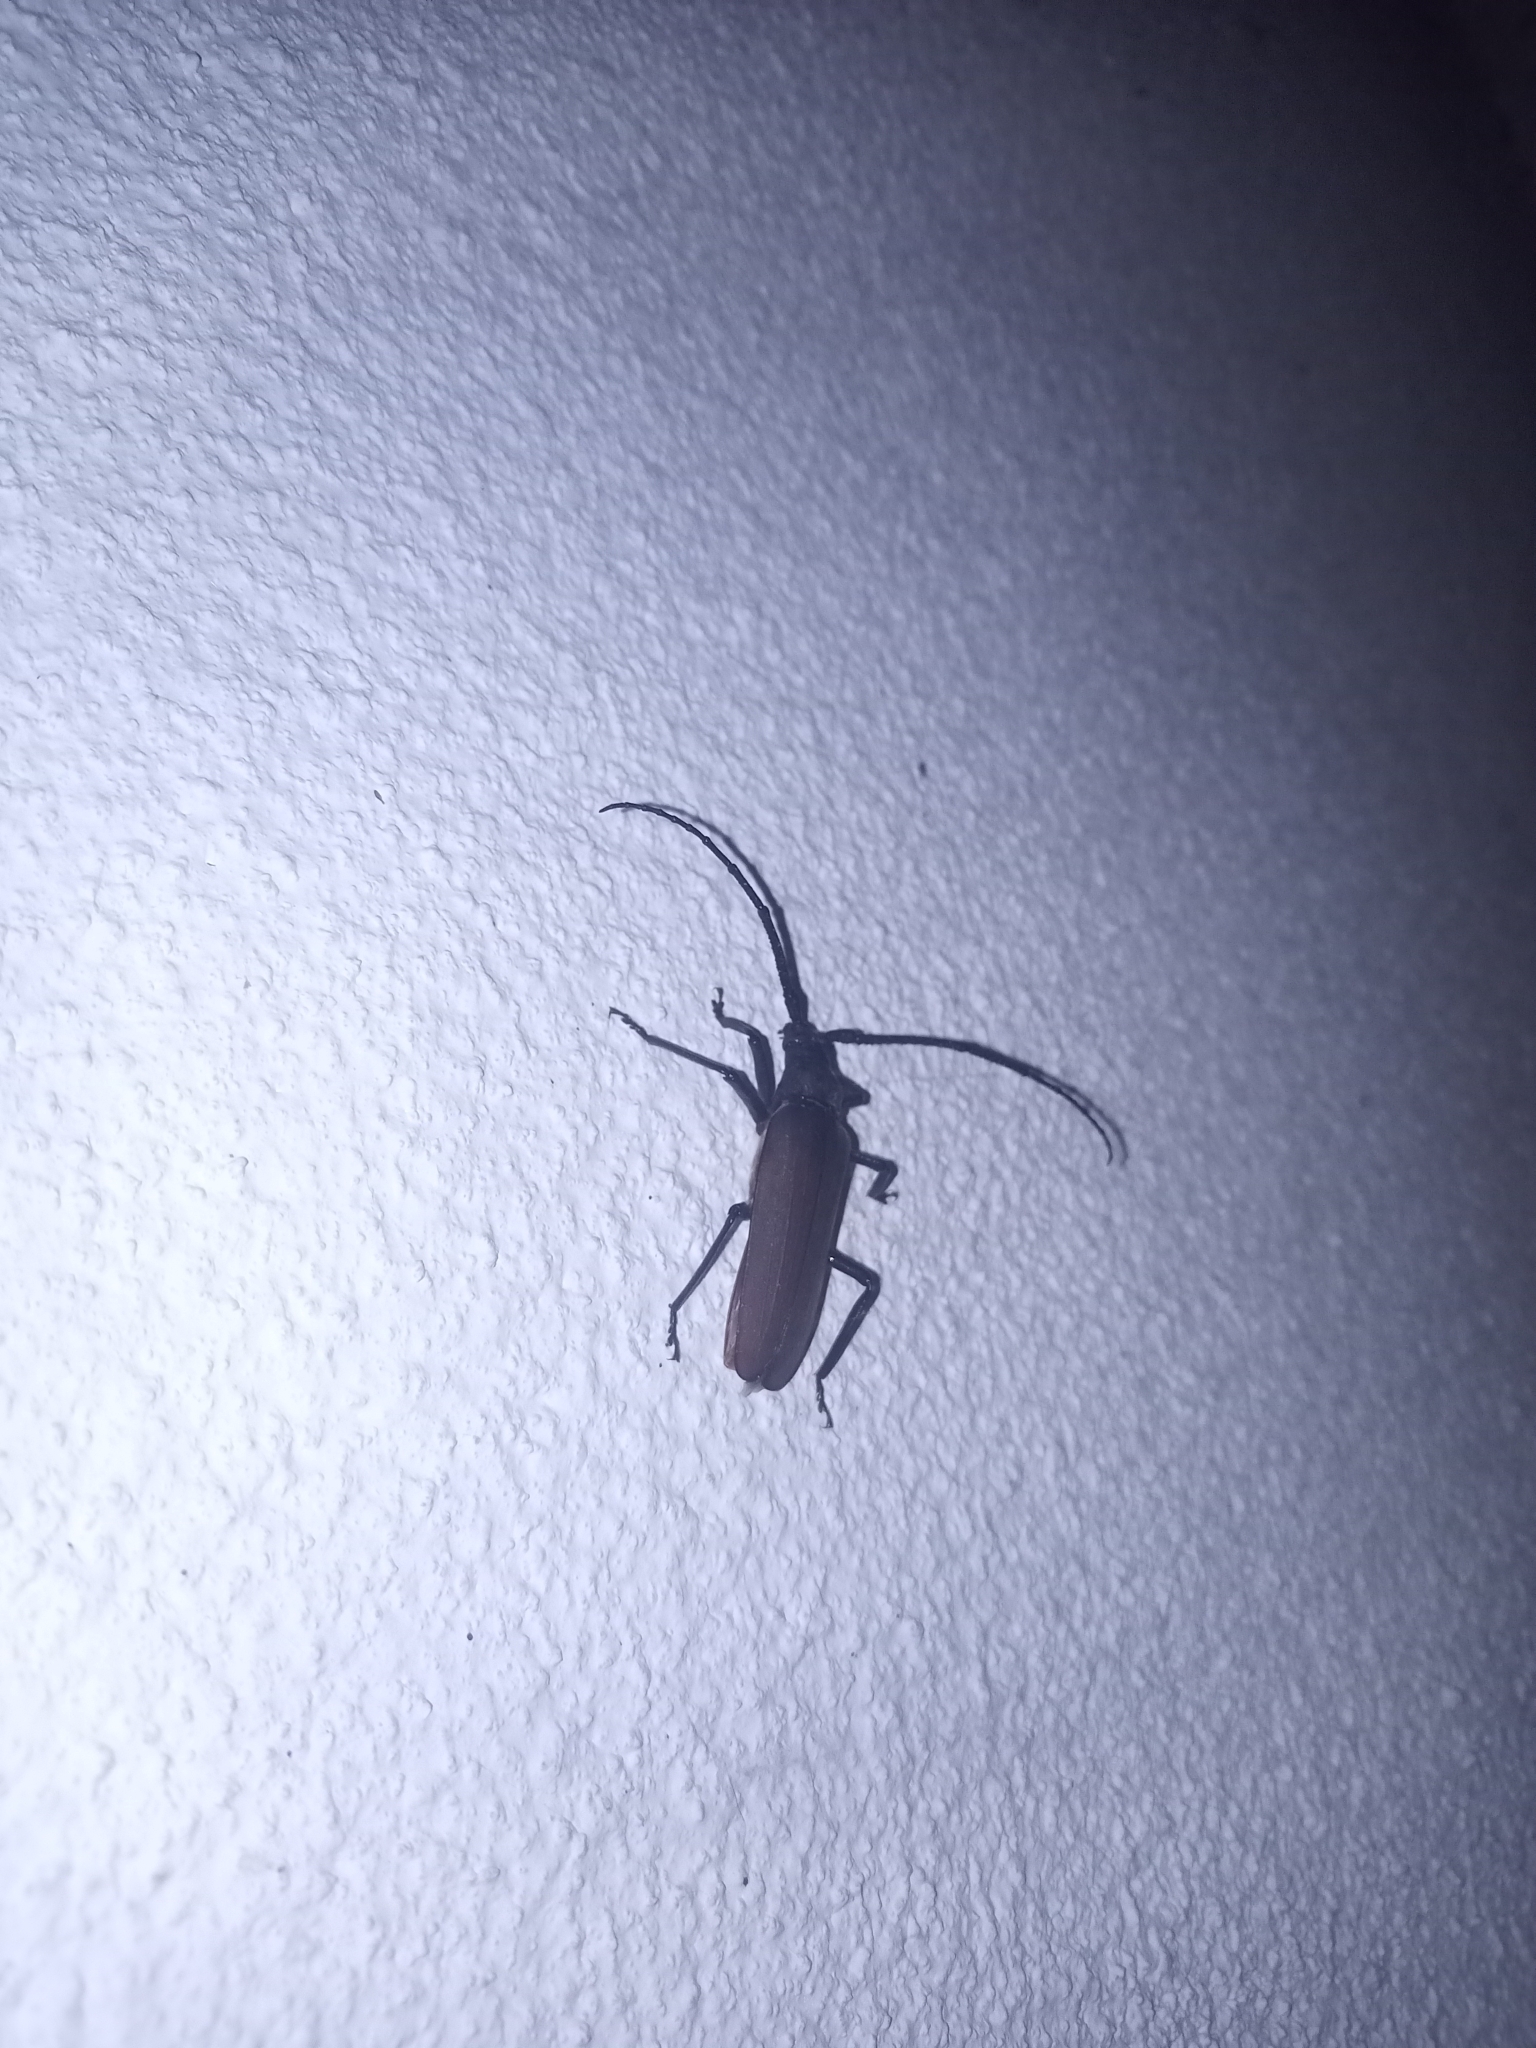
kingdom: Animalia
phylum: Arthropoda
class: Insecta
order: Coleoptera
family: Cerambycidae
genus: Aegosoma
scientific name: Aegosoma scabricorne
